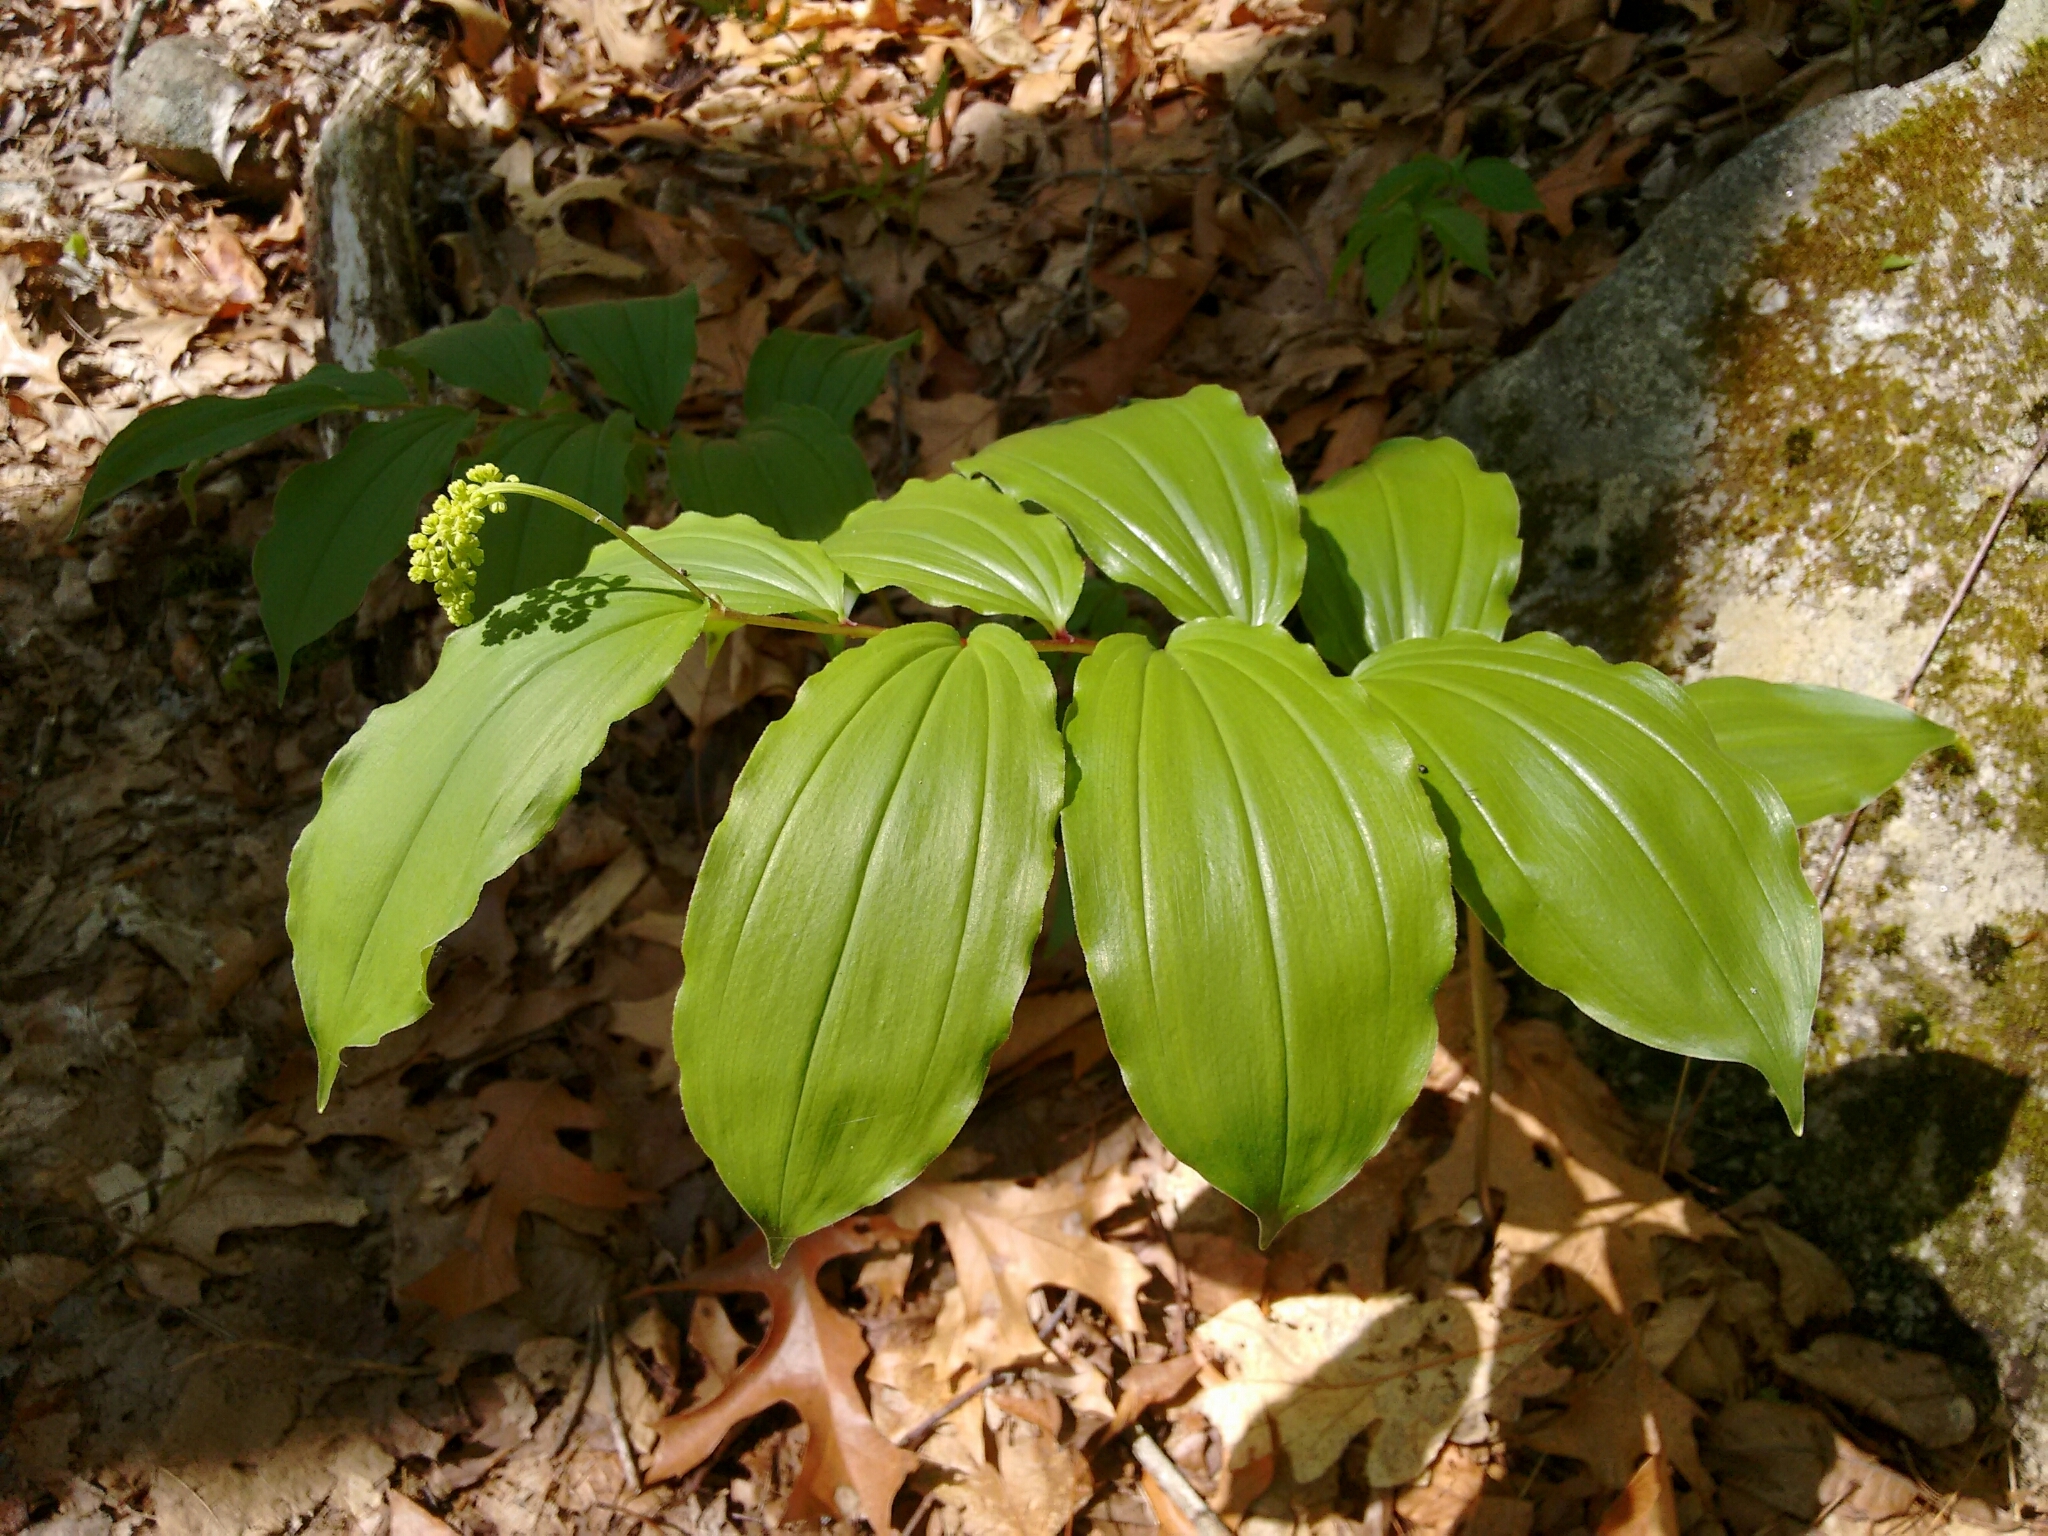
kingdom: Plantae
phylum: Tracheophyta
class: Liliopsida
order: Asparagales
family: Asparagaceae
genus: Maianthemum
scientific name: Maianthemum racemosum
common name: False spikenard
